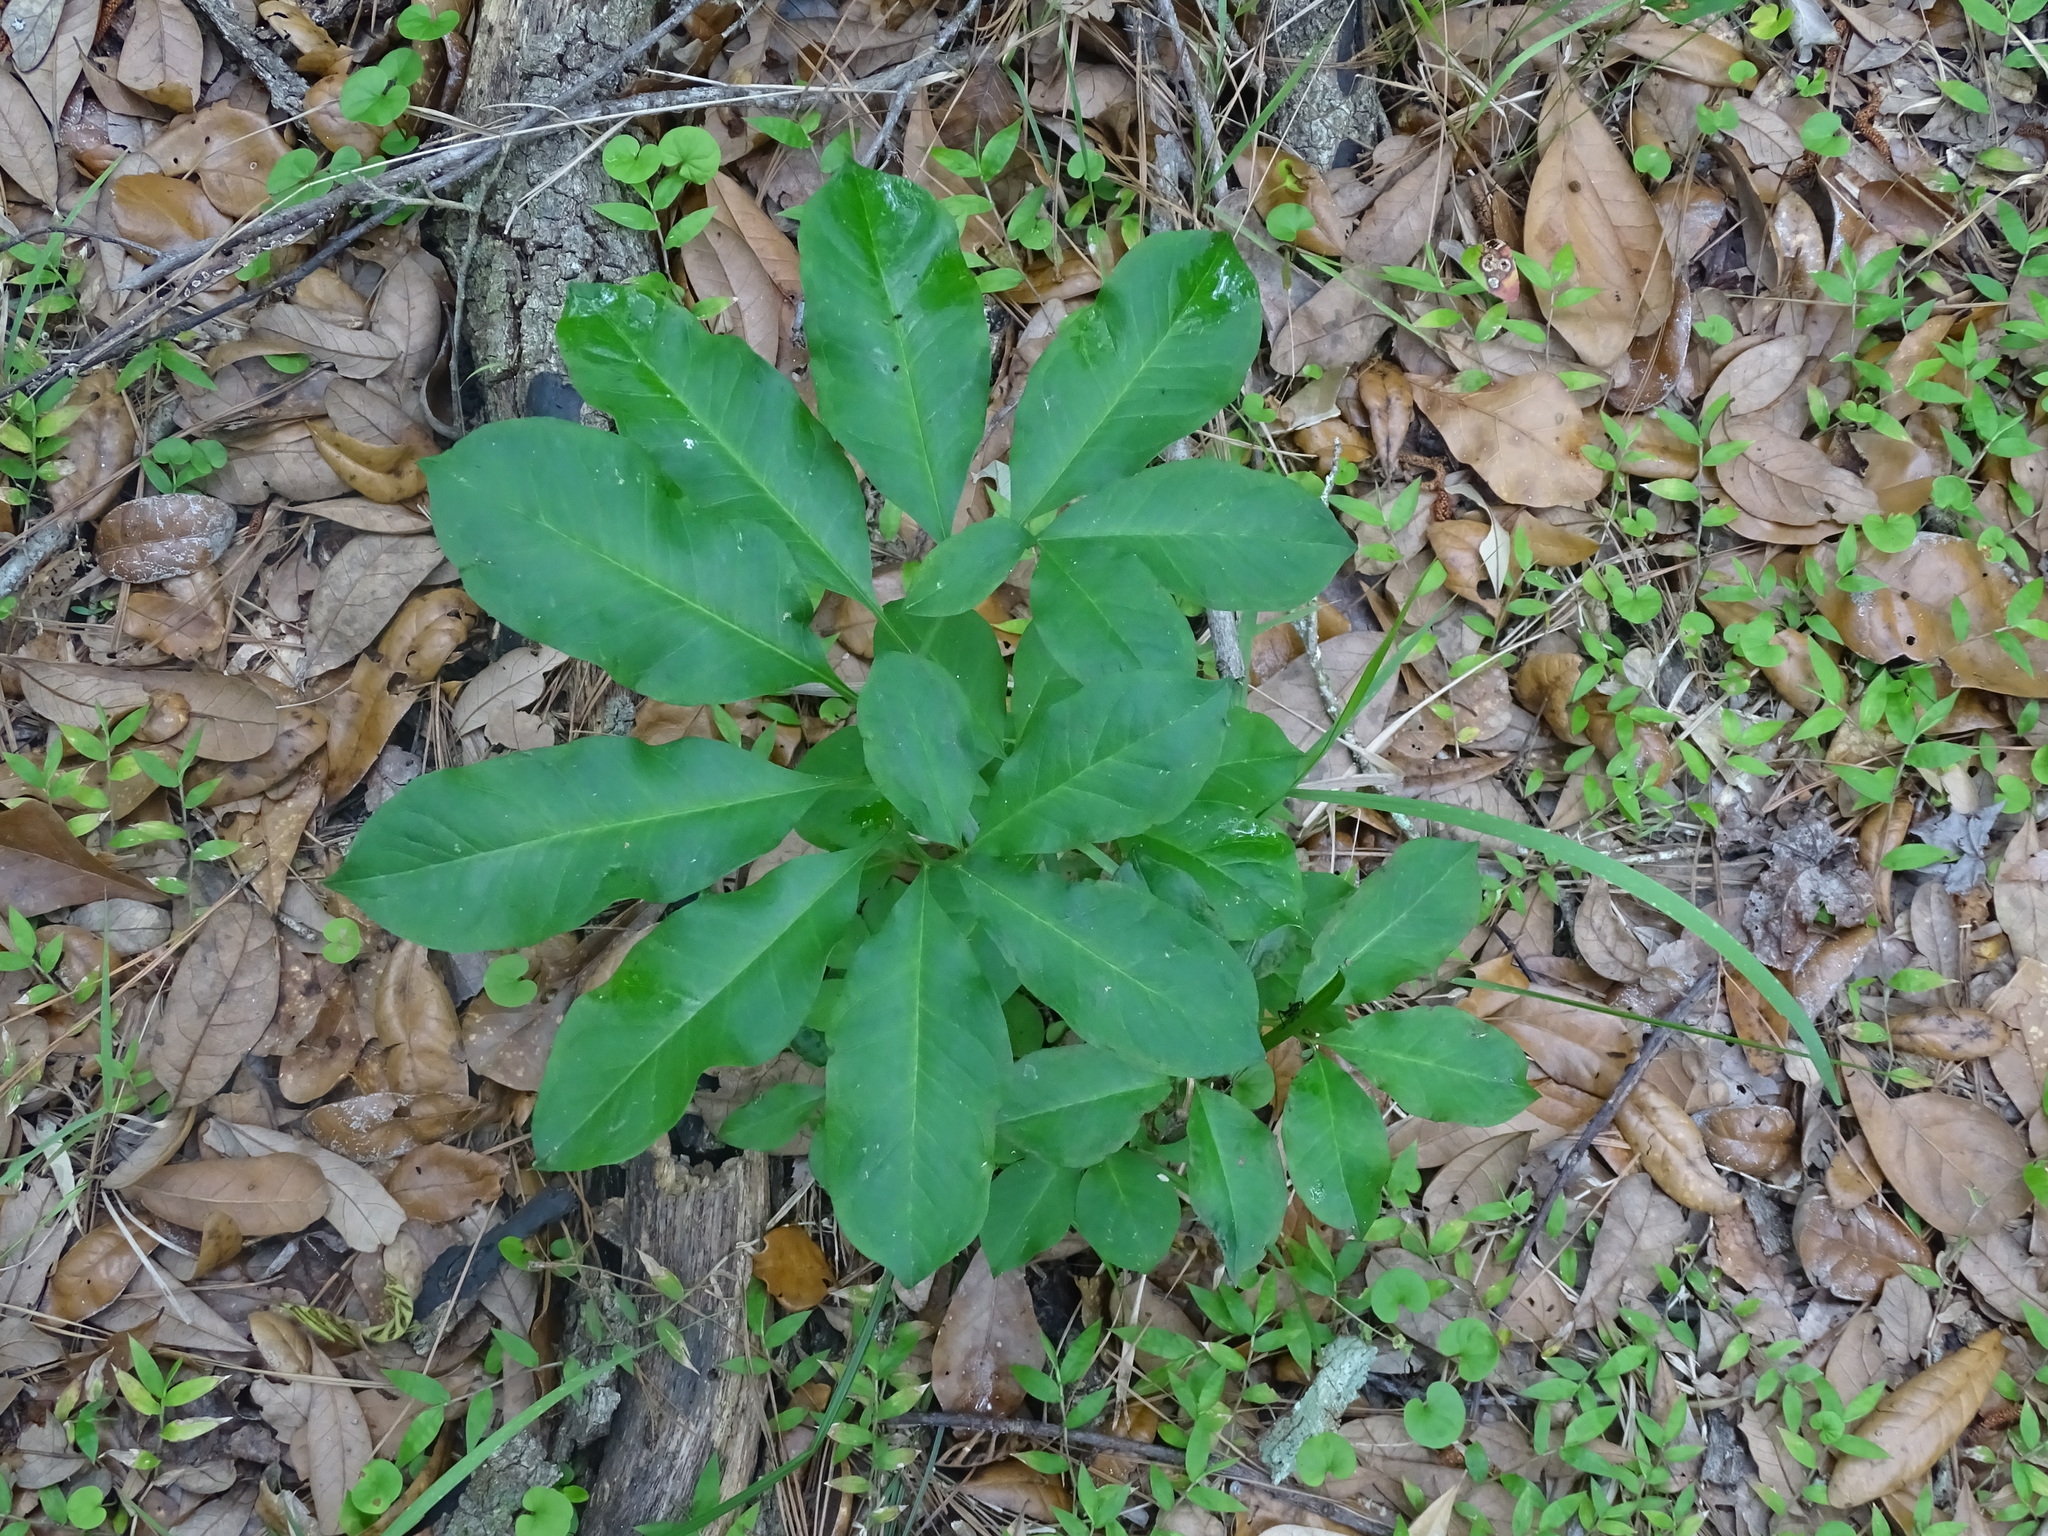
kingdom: Plantae
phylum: Tracheophyta
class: Liliopsida
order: Alismatales
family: Araceae
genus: Arisaema
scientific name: Arisaema dracontium
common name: Dragon-arum
